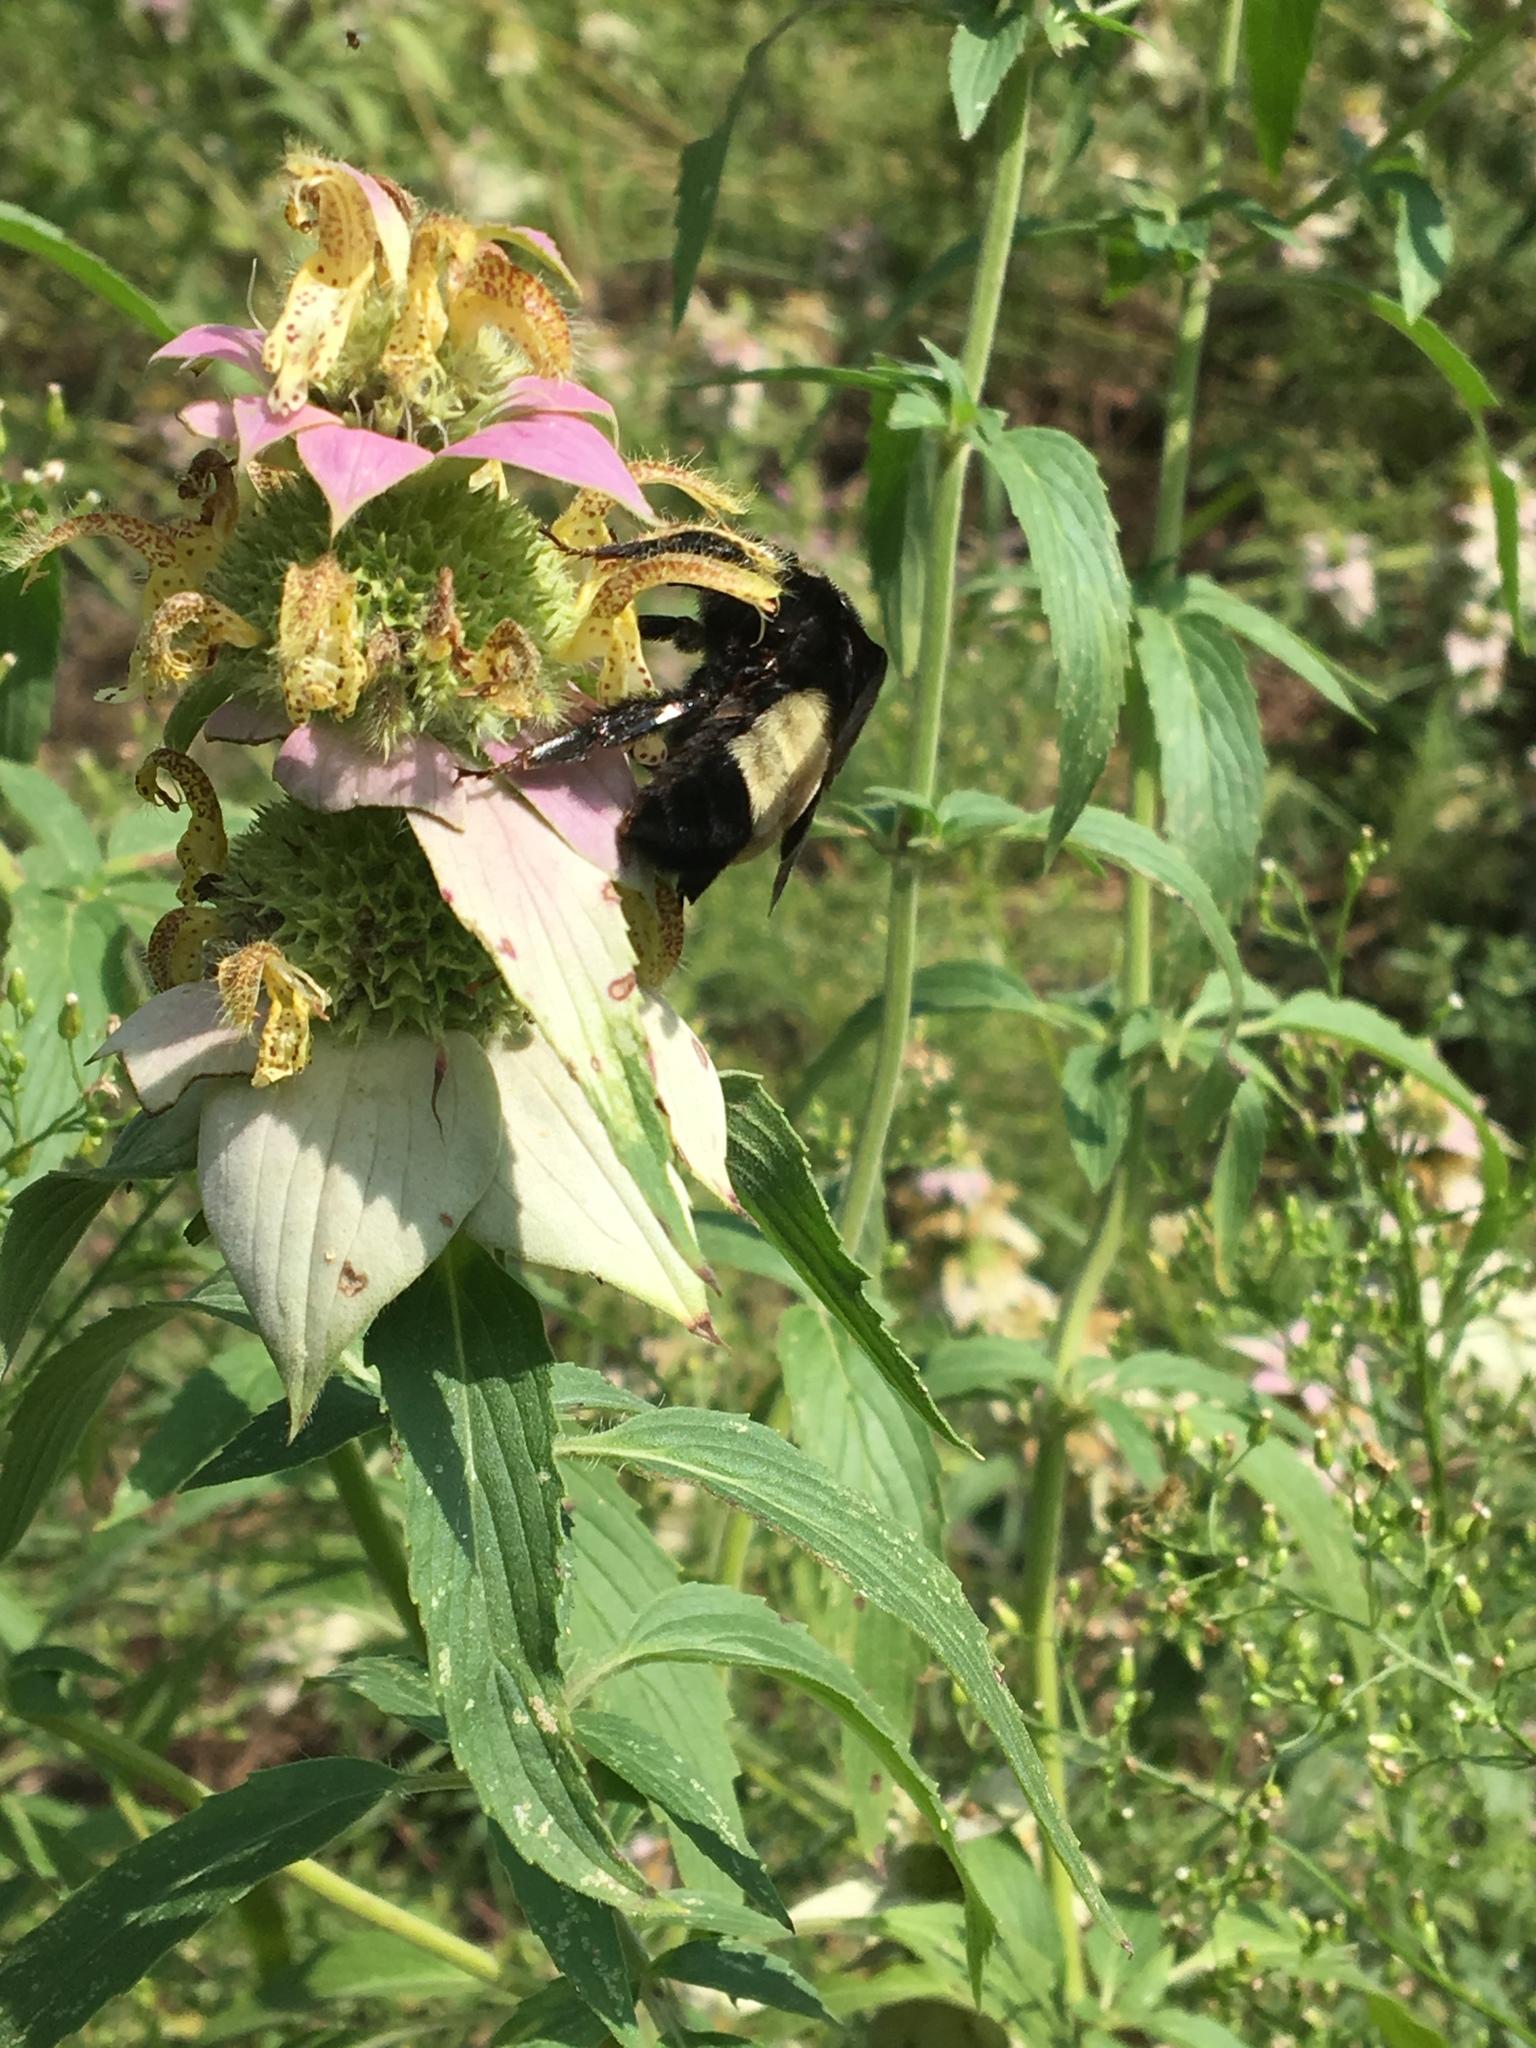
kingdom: Animalia
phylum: Arthropoda
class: Insecta
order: Hymenoptera
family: Apidae
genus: Bombus
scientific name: Bombus pensylvanicus
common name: Bumble bee
